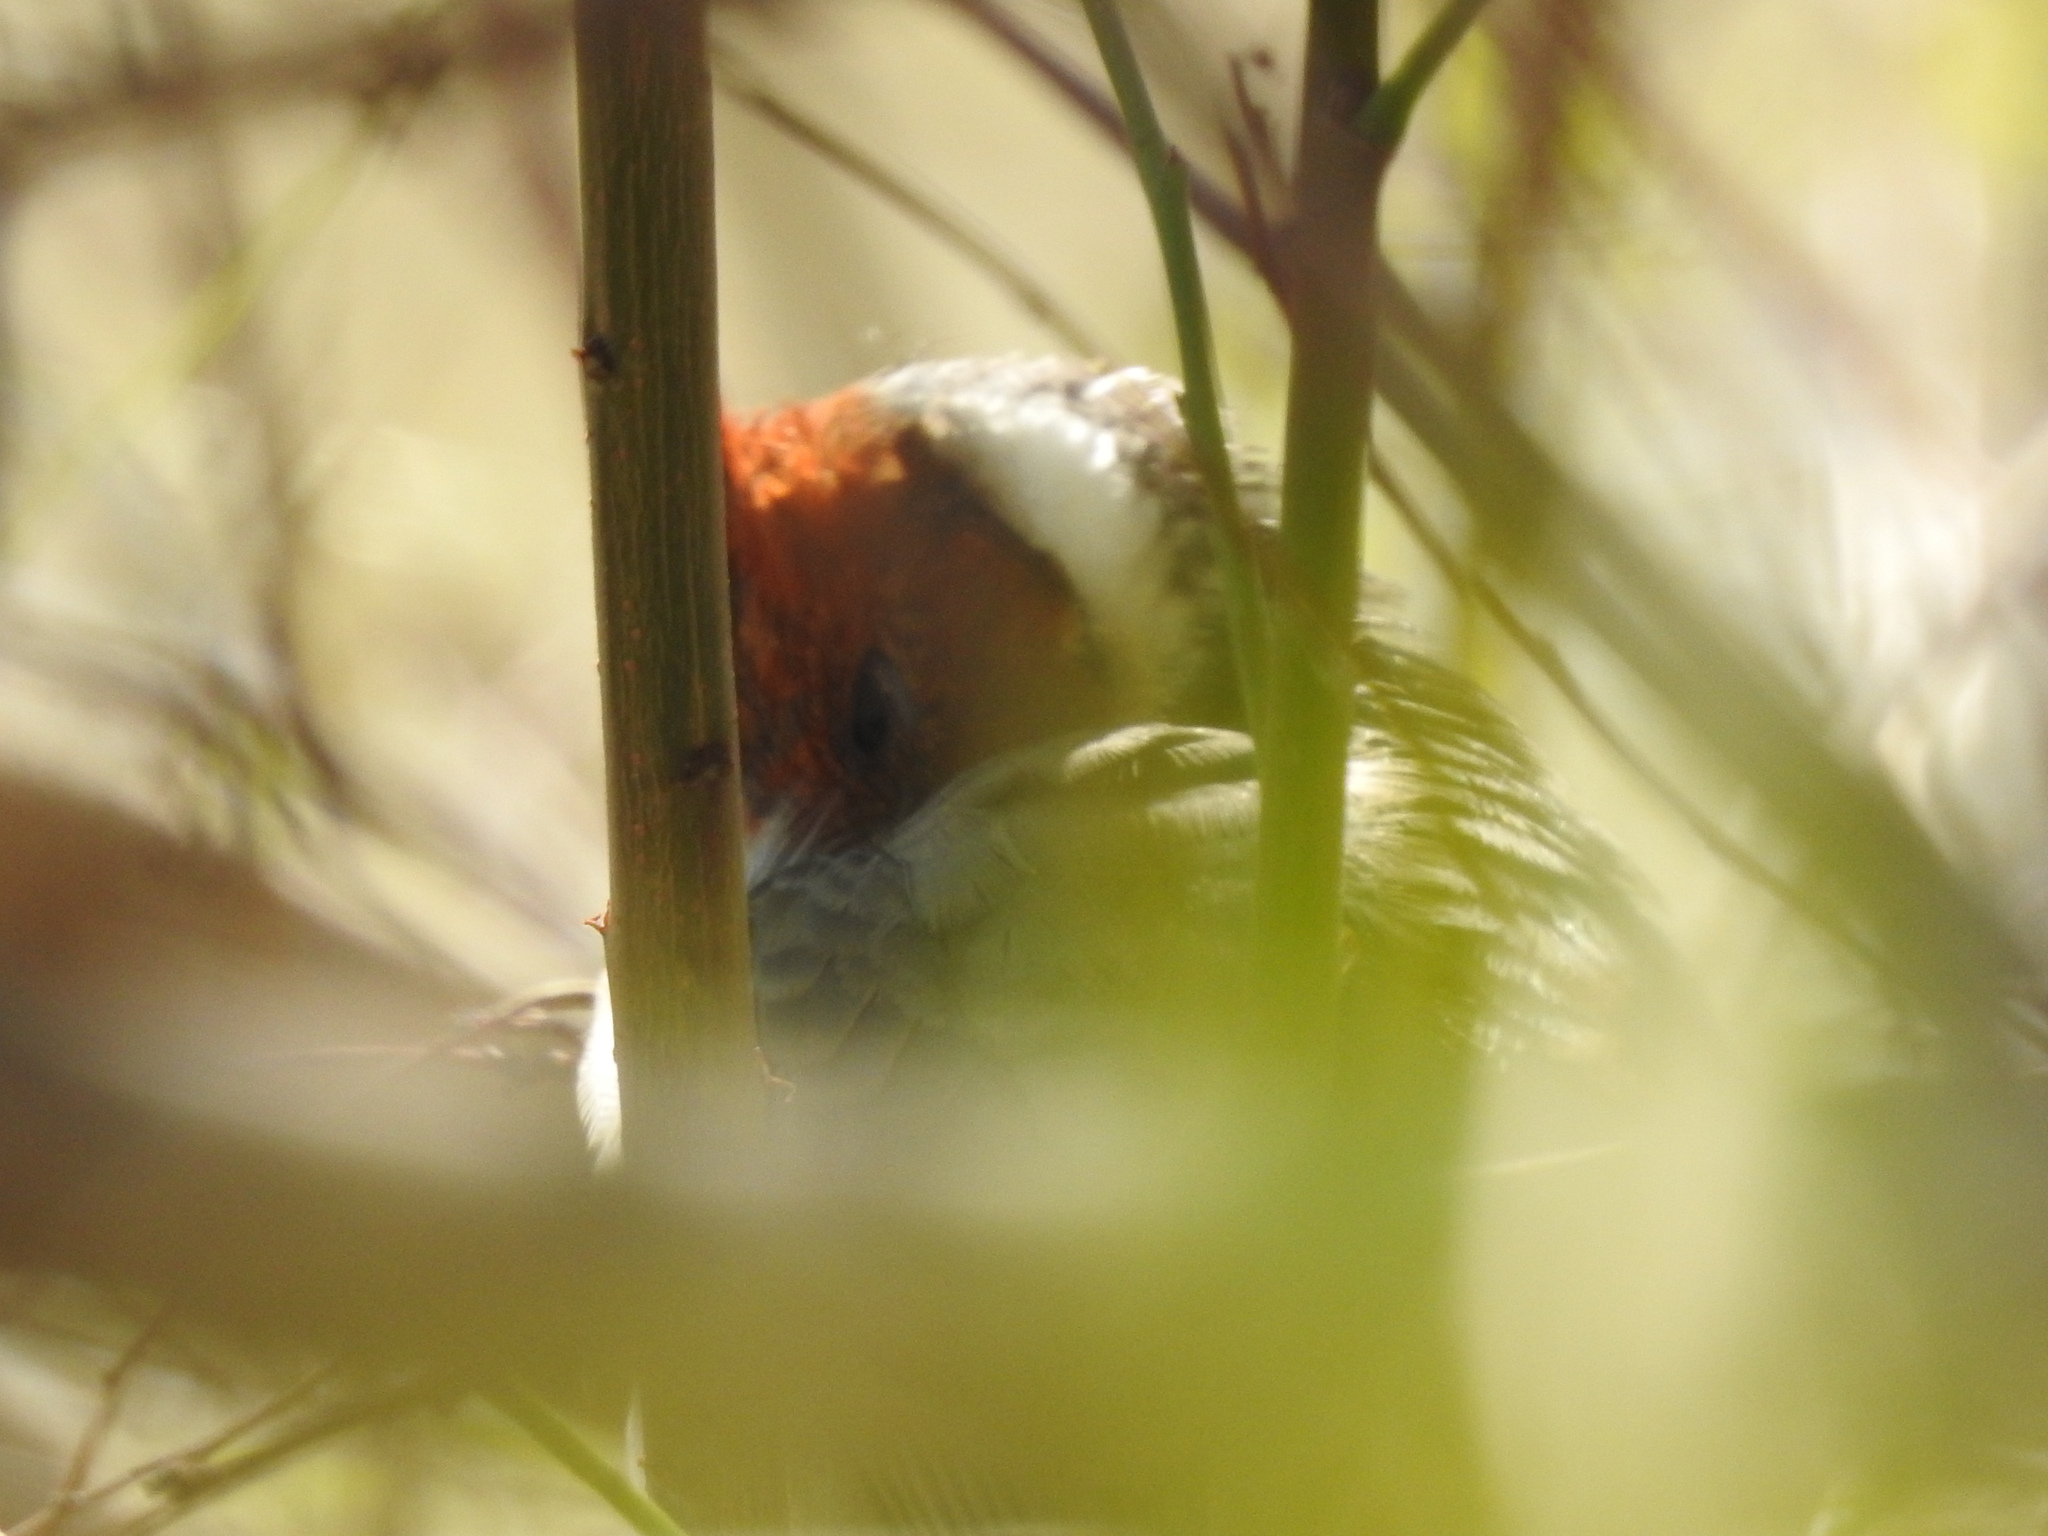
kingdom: Animalia
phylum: Chordata
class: Aves
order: Passeriformes
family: Thraupidae
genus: Paroaria
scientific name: Paroaria coronata
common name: Red-crested cardinal
